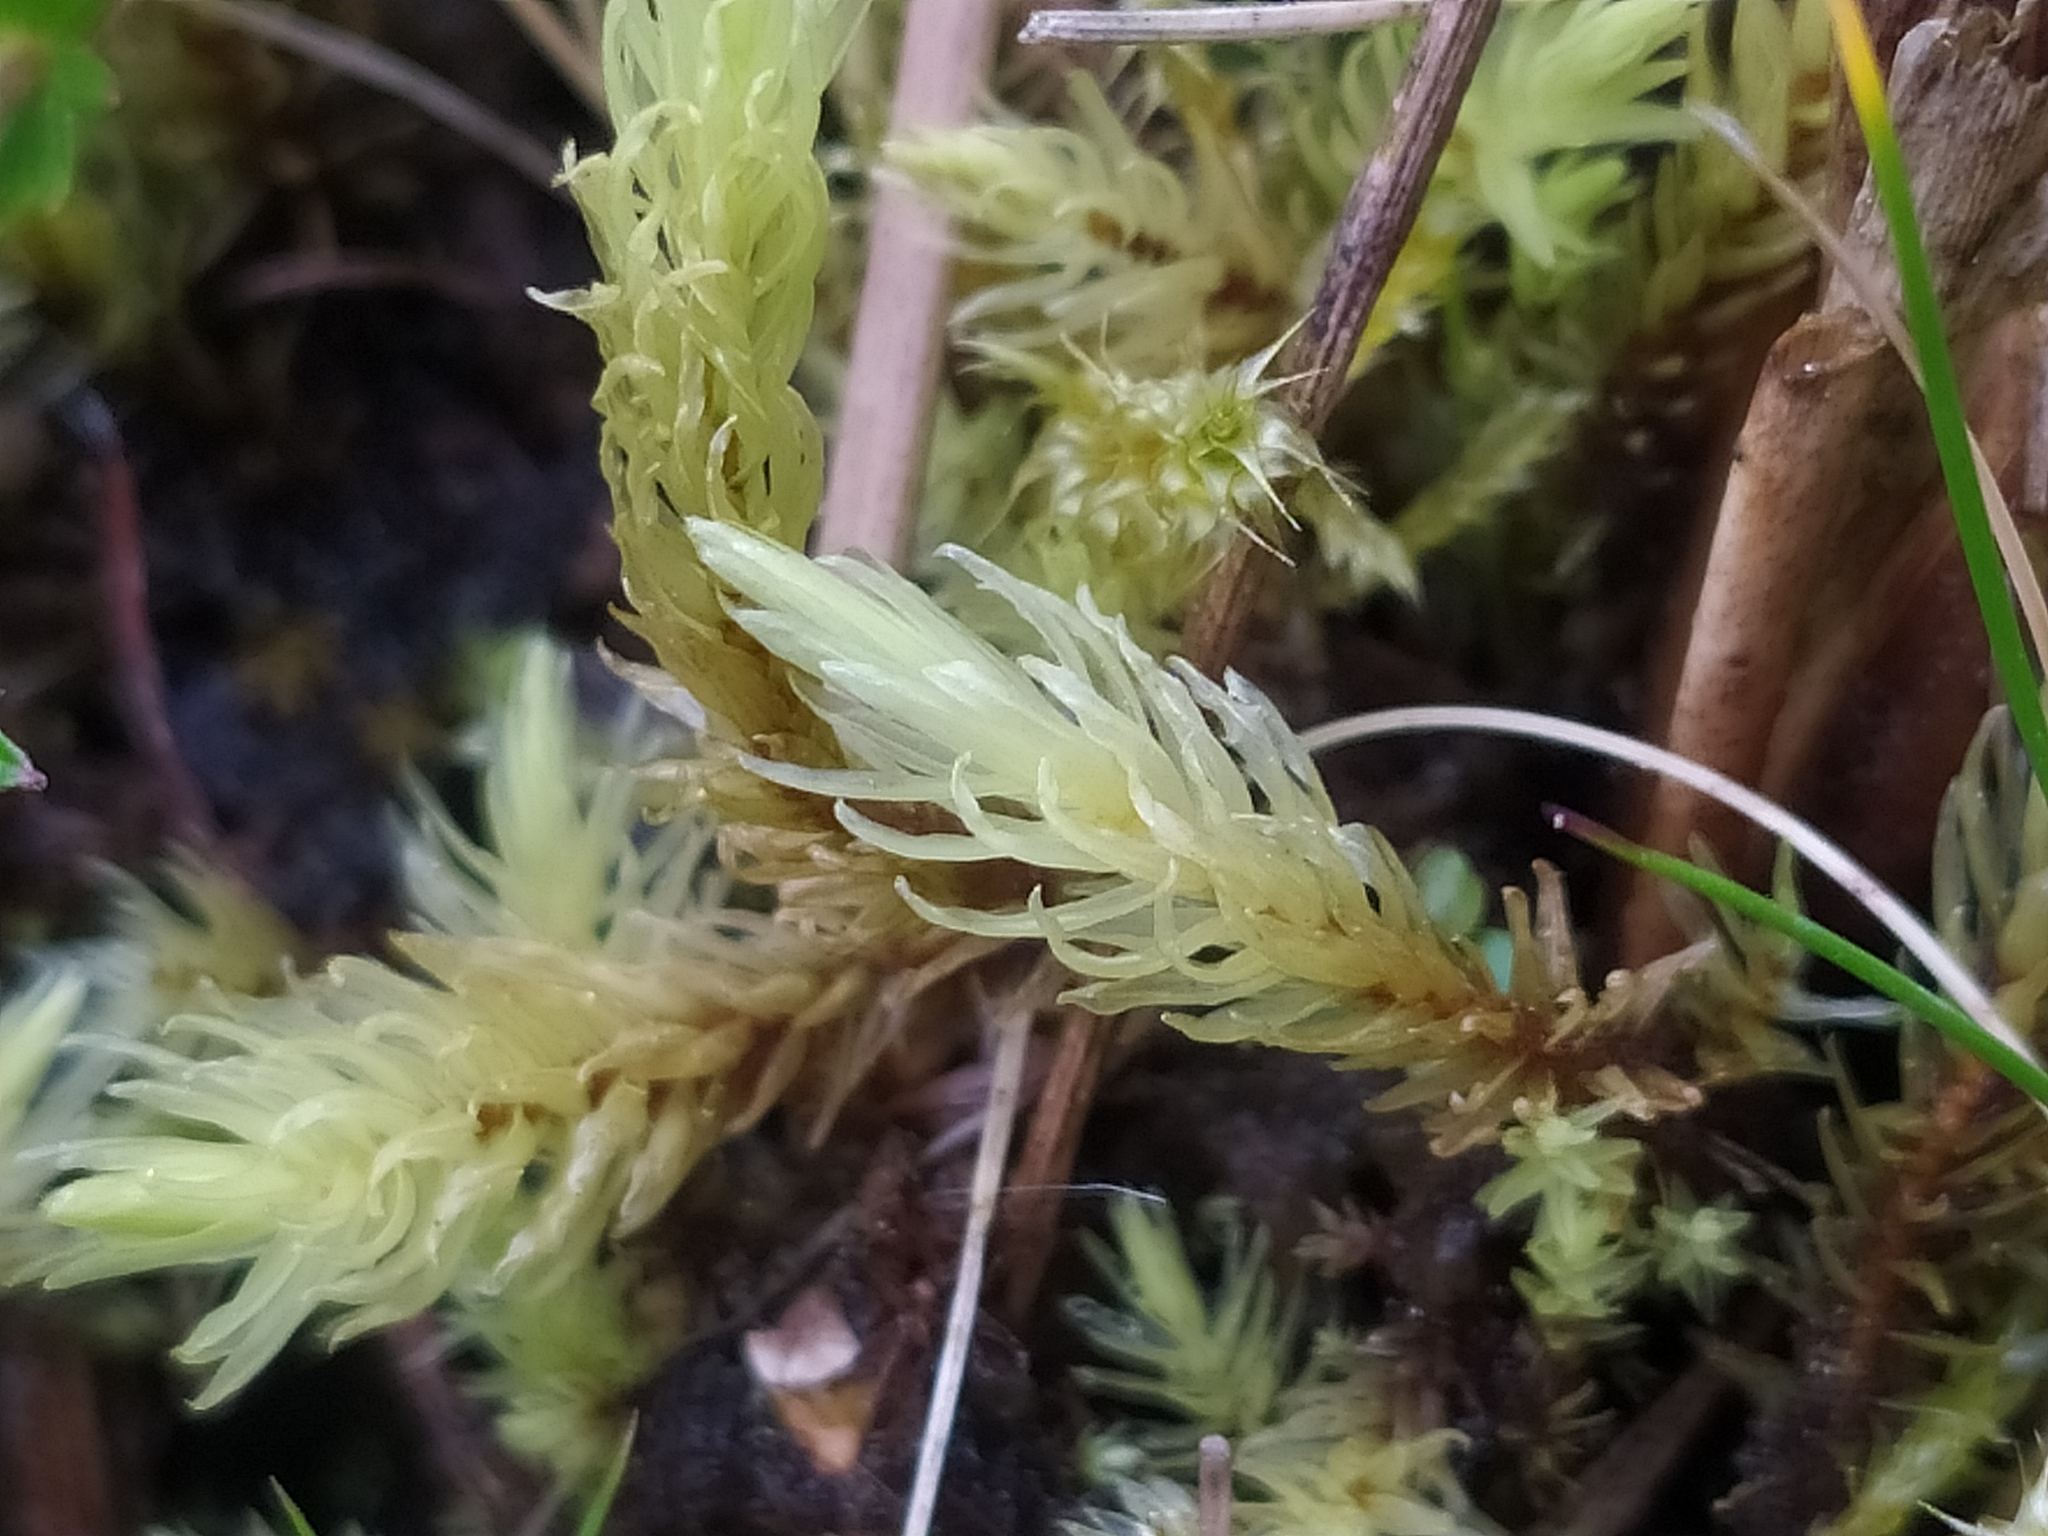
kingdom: Plantae
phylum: Bryophyta
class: Bryopsida
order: Aulacomniales
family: Aulacomniaceae
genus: Aulacomnium
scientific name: Aulacomnium palustre
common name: Bog groove-moss
